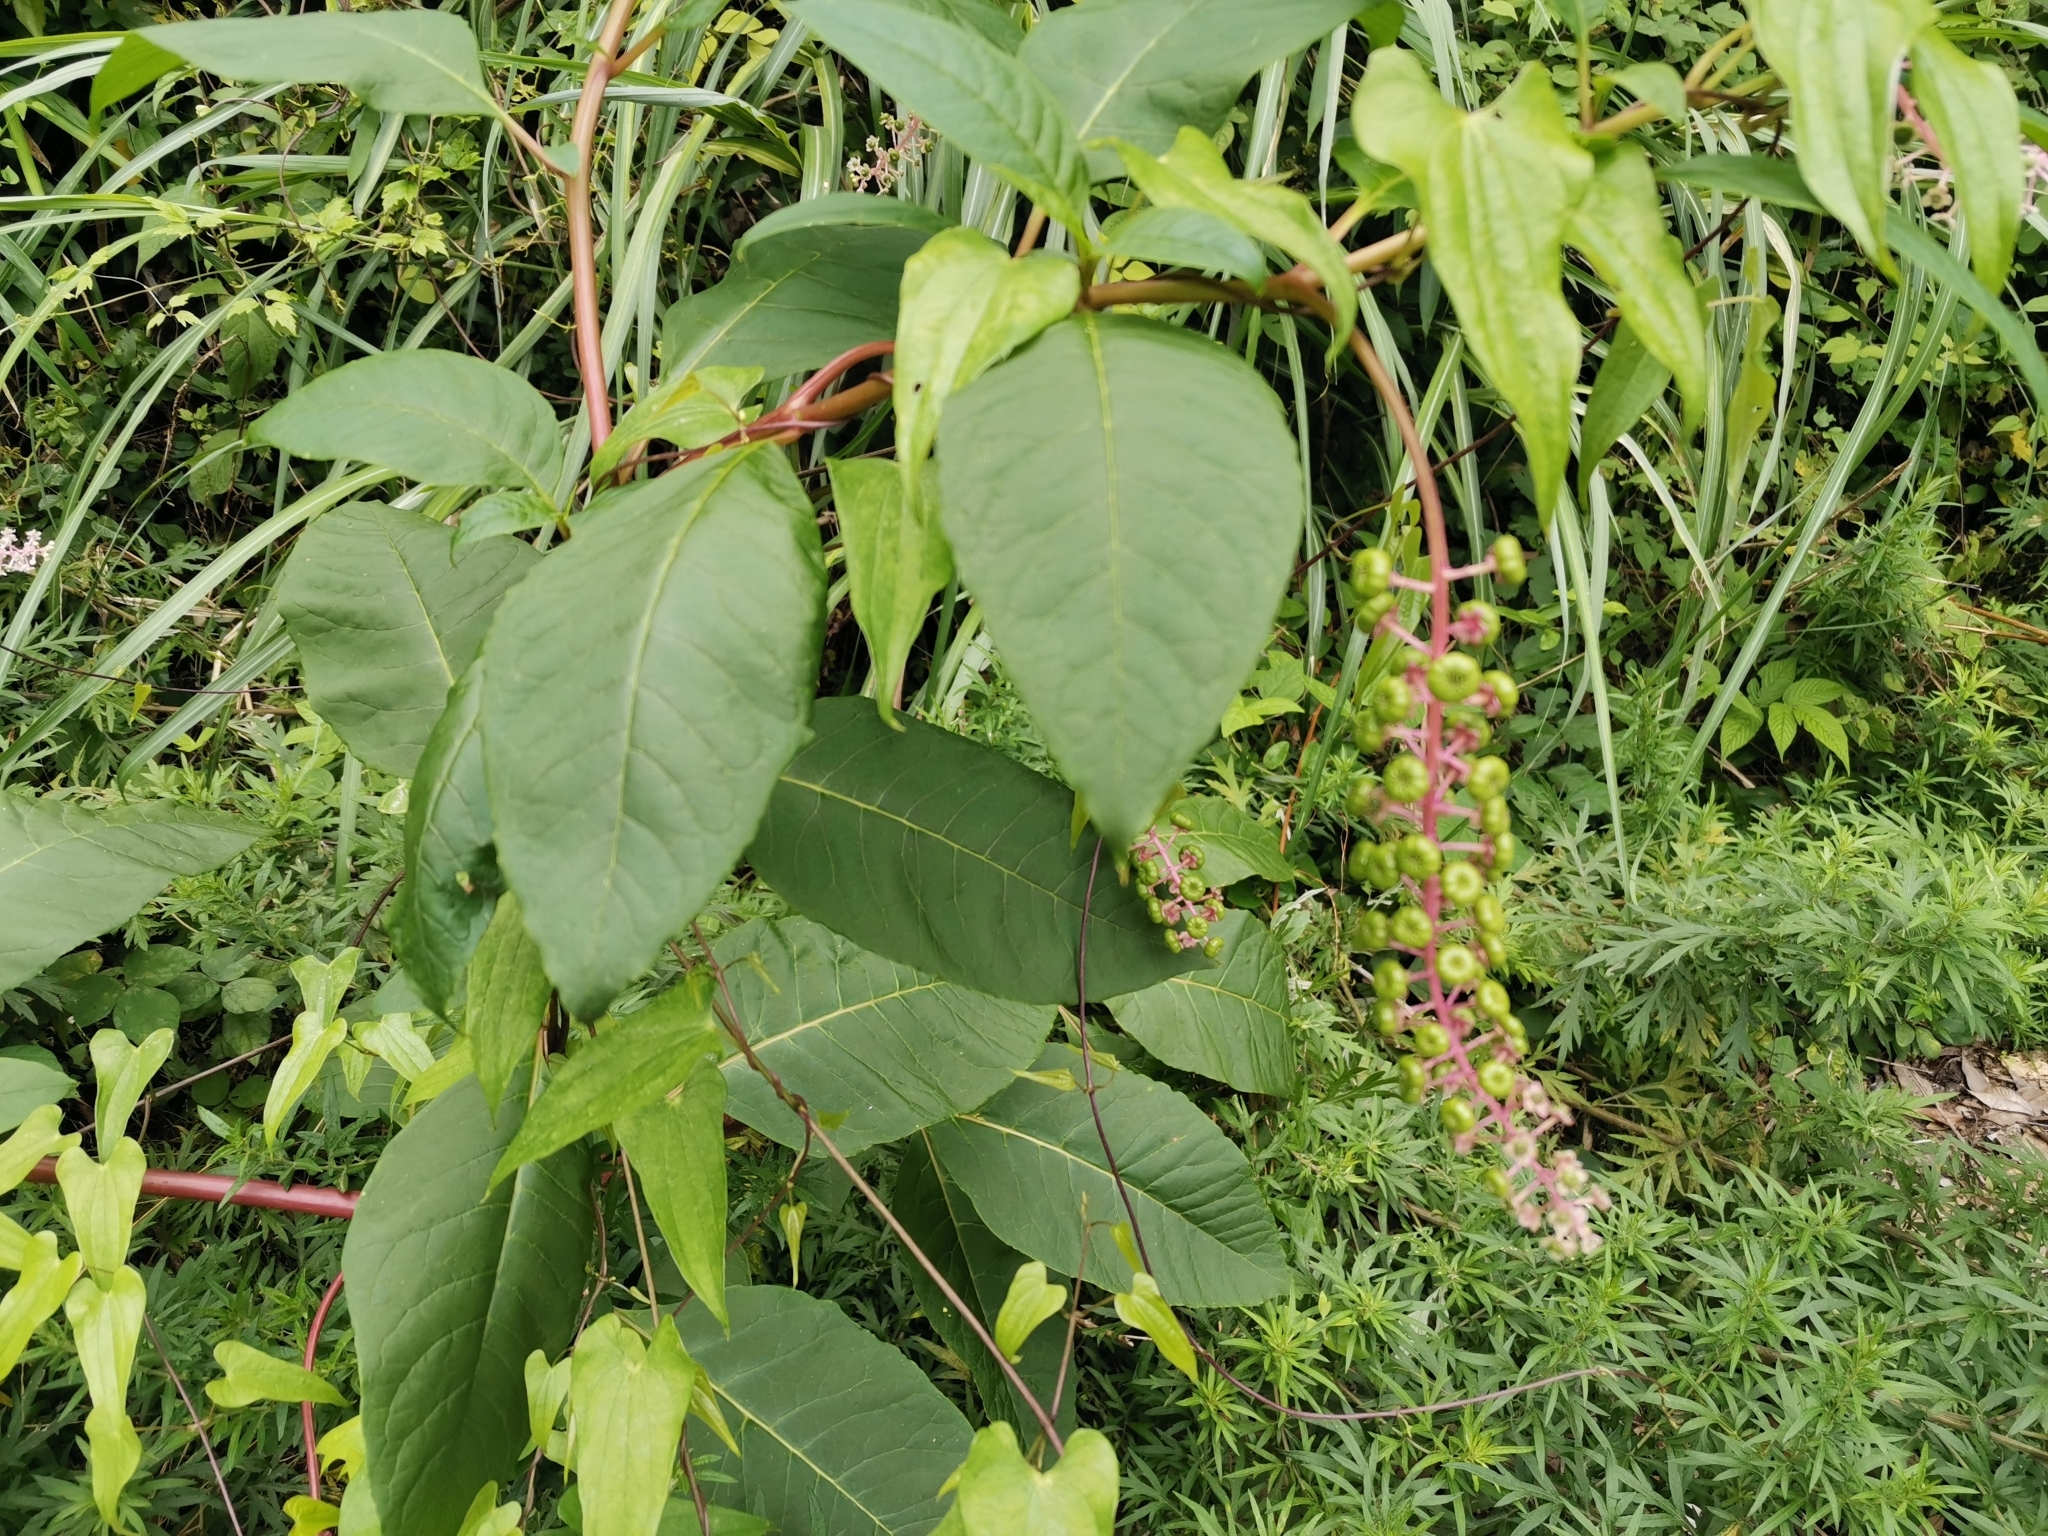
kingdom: Plantae
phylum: Tracheophyta
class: Magnoliopsida
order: Caryophyllales
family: Phytolaccaceae
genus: Phytolacca
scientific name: Phytolacca americana
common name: American pokeweed
